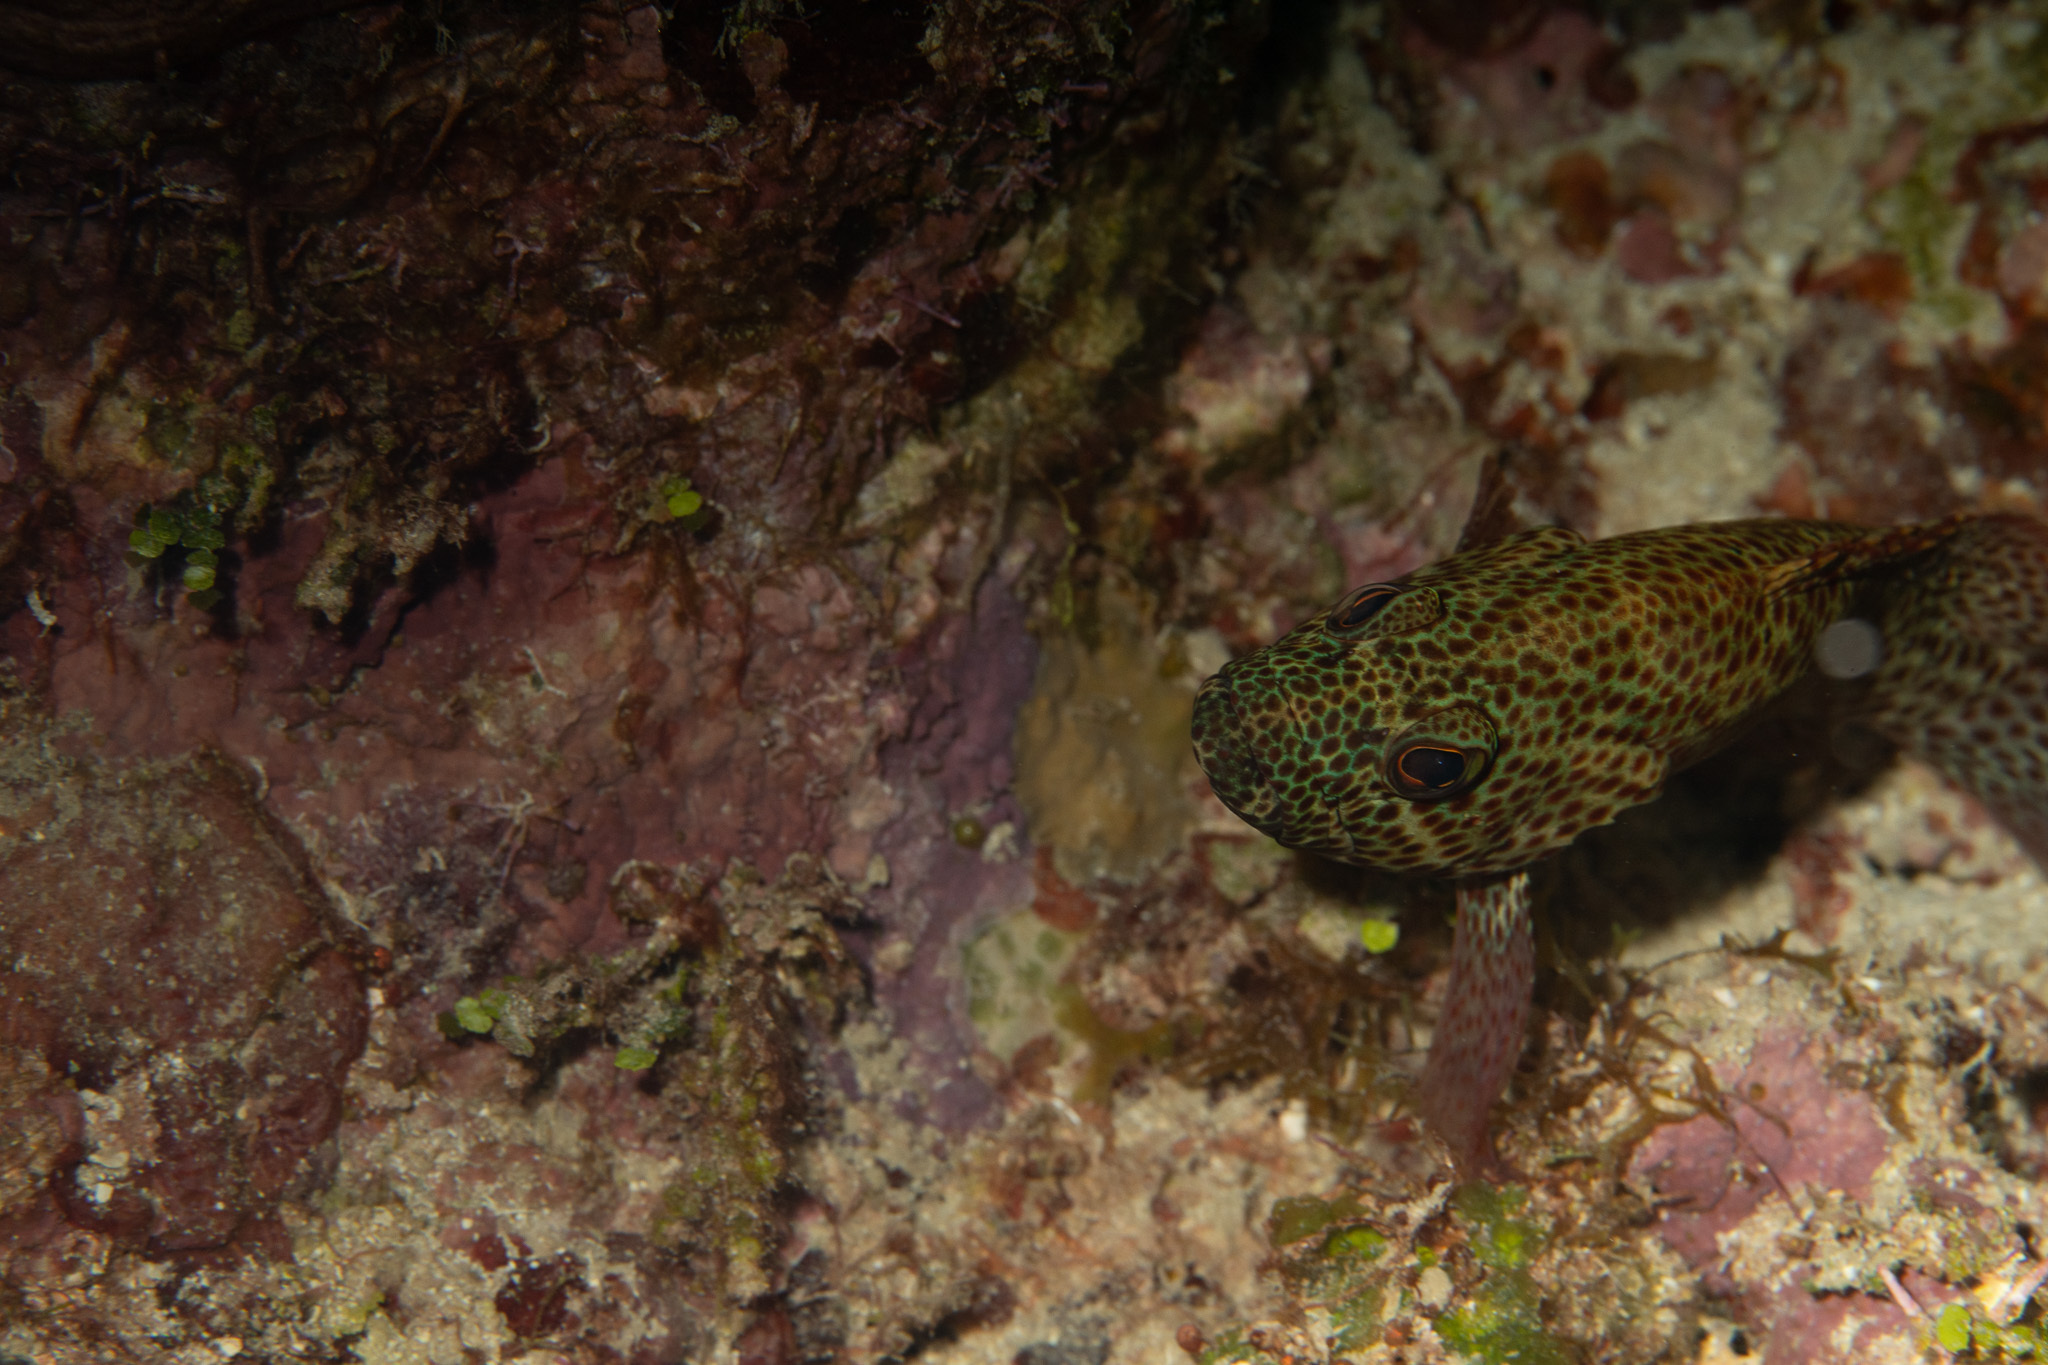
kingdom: Animalia
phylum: Chordata
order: Perciformes
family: Serranidae
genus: Cephalopholis
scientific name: Cephalopholis cruentata
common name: Graysby
